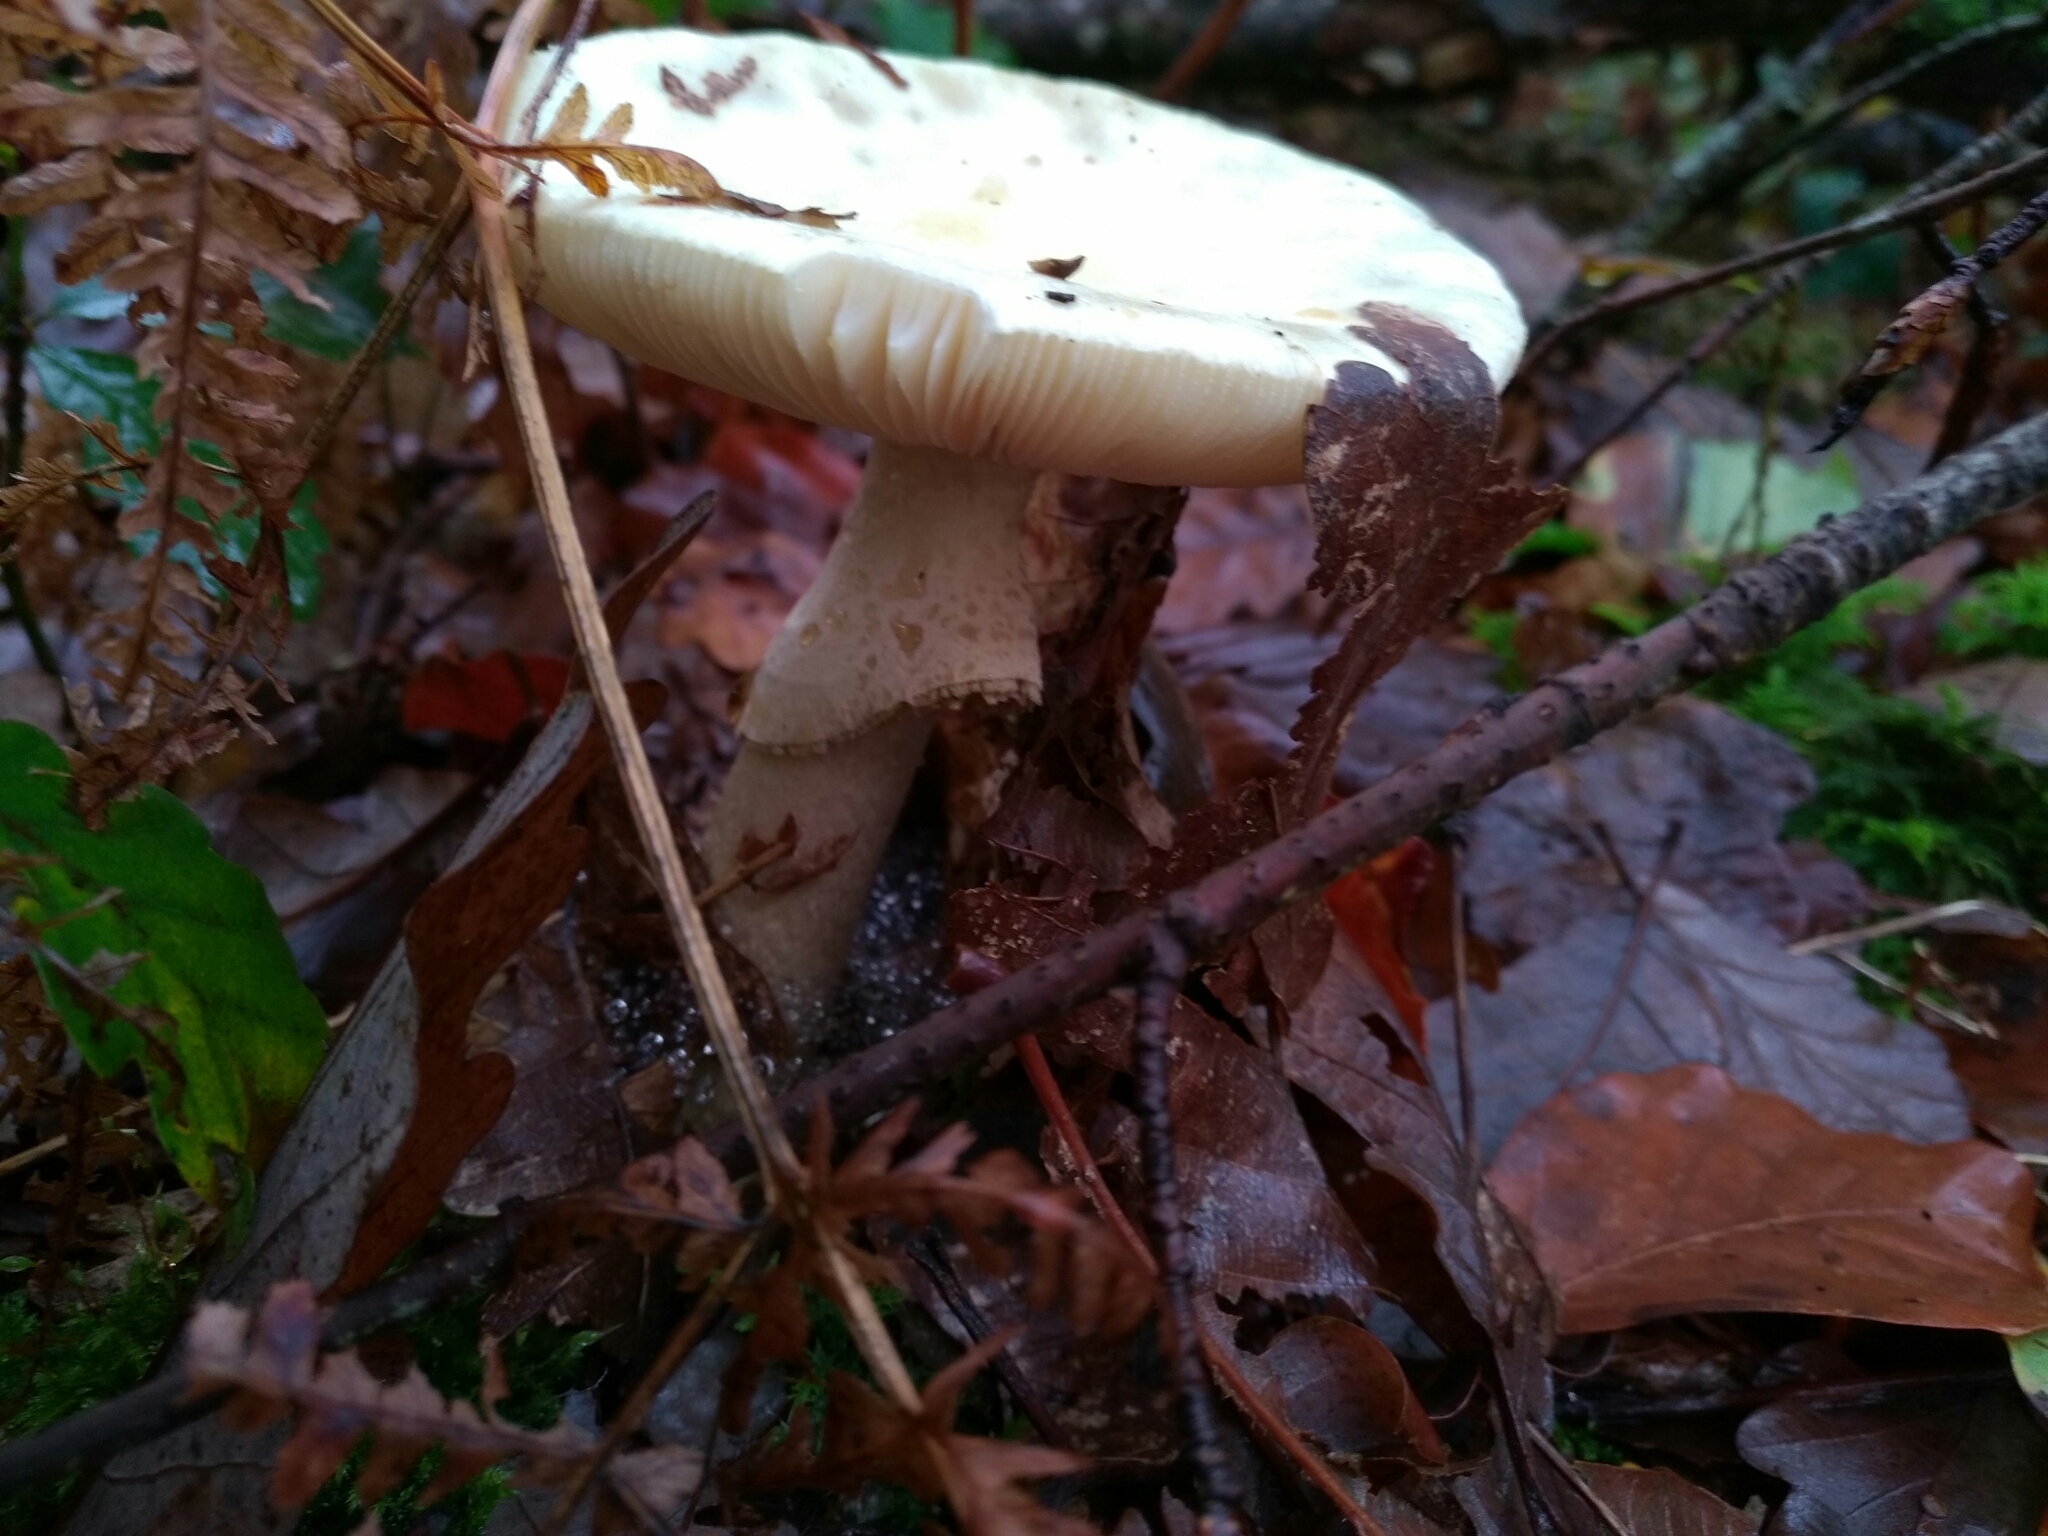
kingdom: Fungi
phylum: Basidiomycota
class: Agaricomycetes
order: Agaricales
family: Amanitaceae
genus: Amanita
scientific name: Amanita citrina
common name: False death-cap
